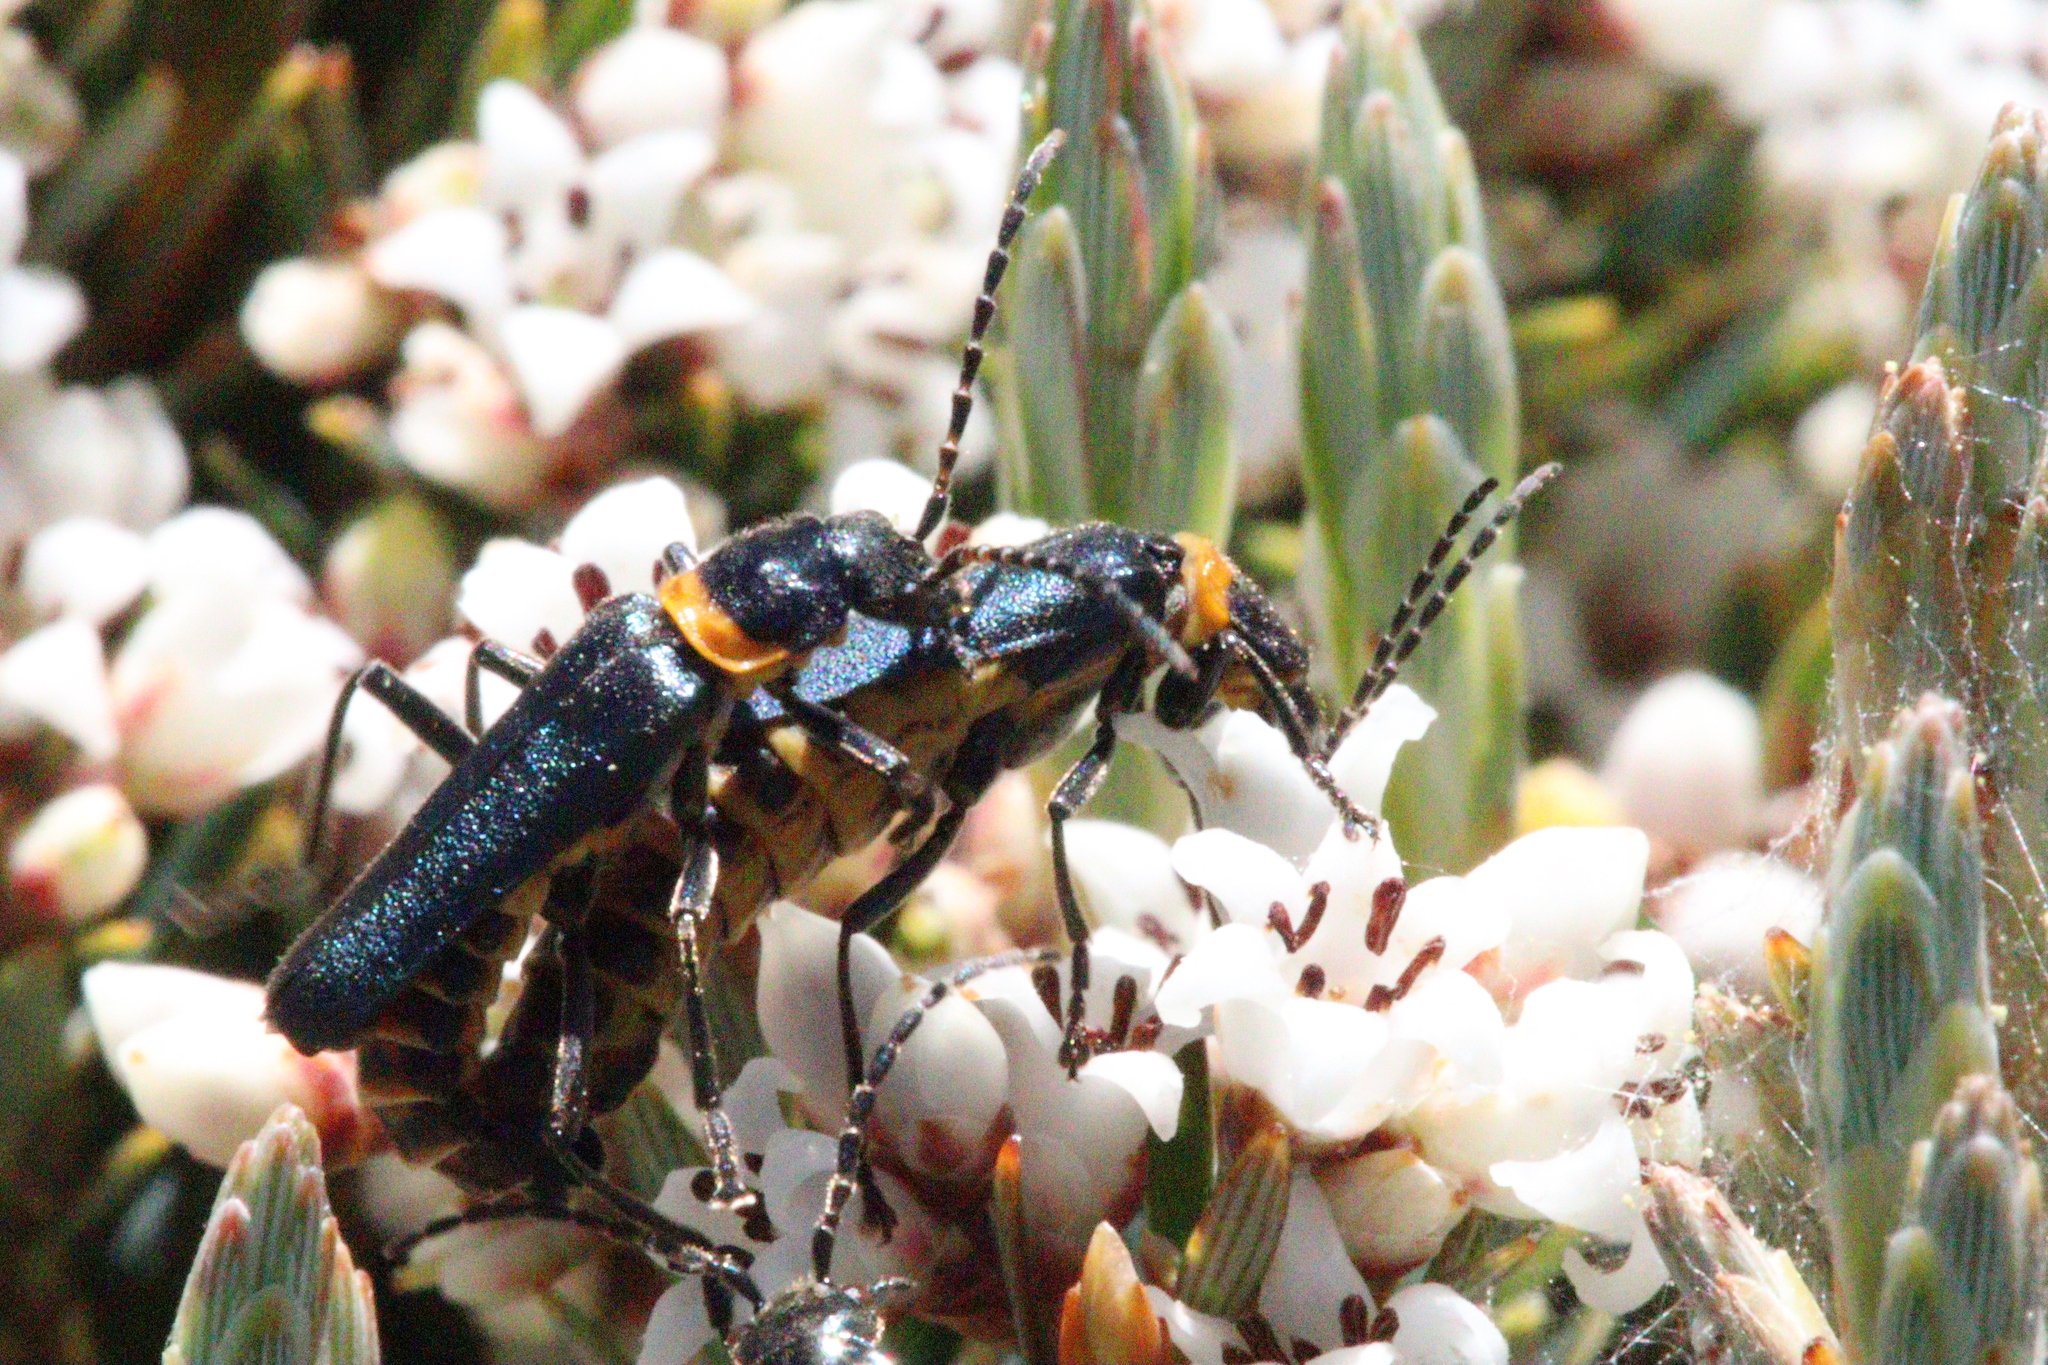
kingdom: Animalia
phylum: Arthropoda
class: Insecta
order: Coleoptera
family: Cantharidae
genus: Chauliognathus
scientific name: Chauliognathus
